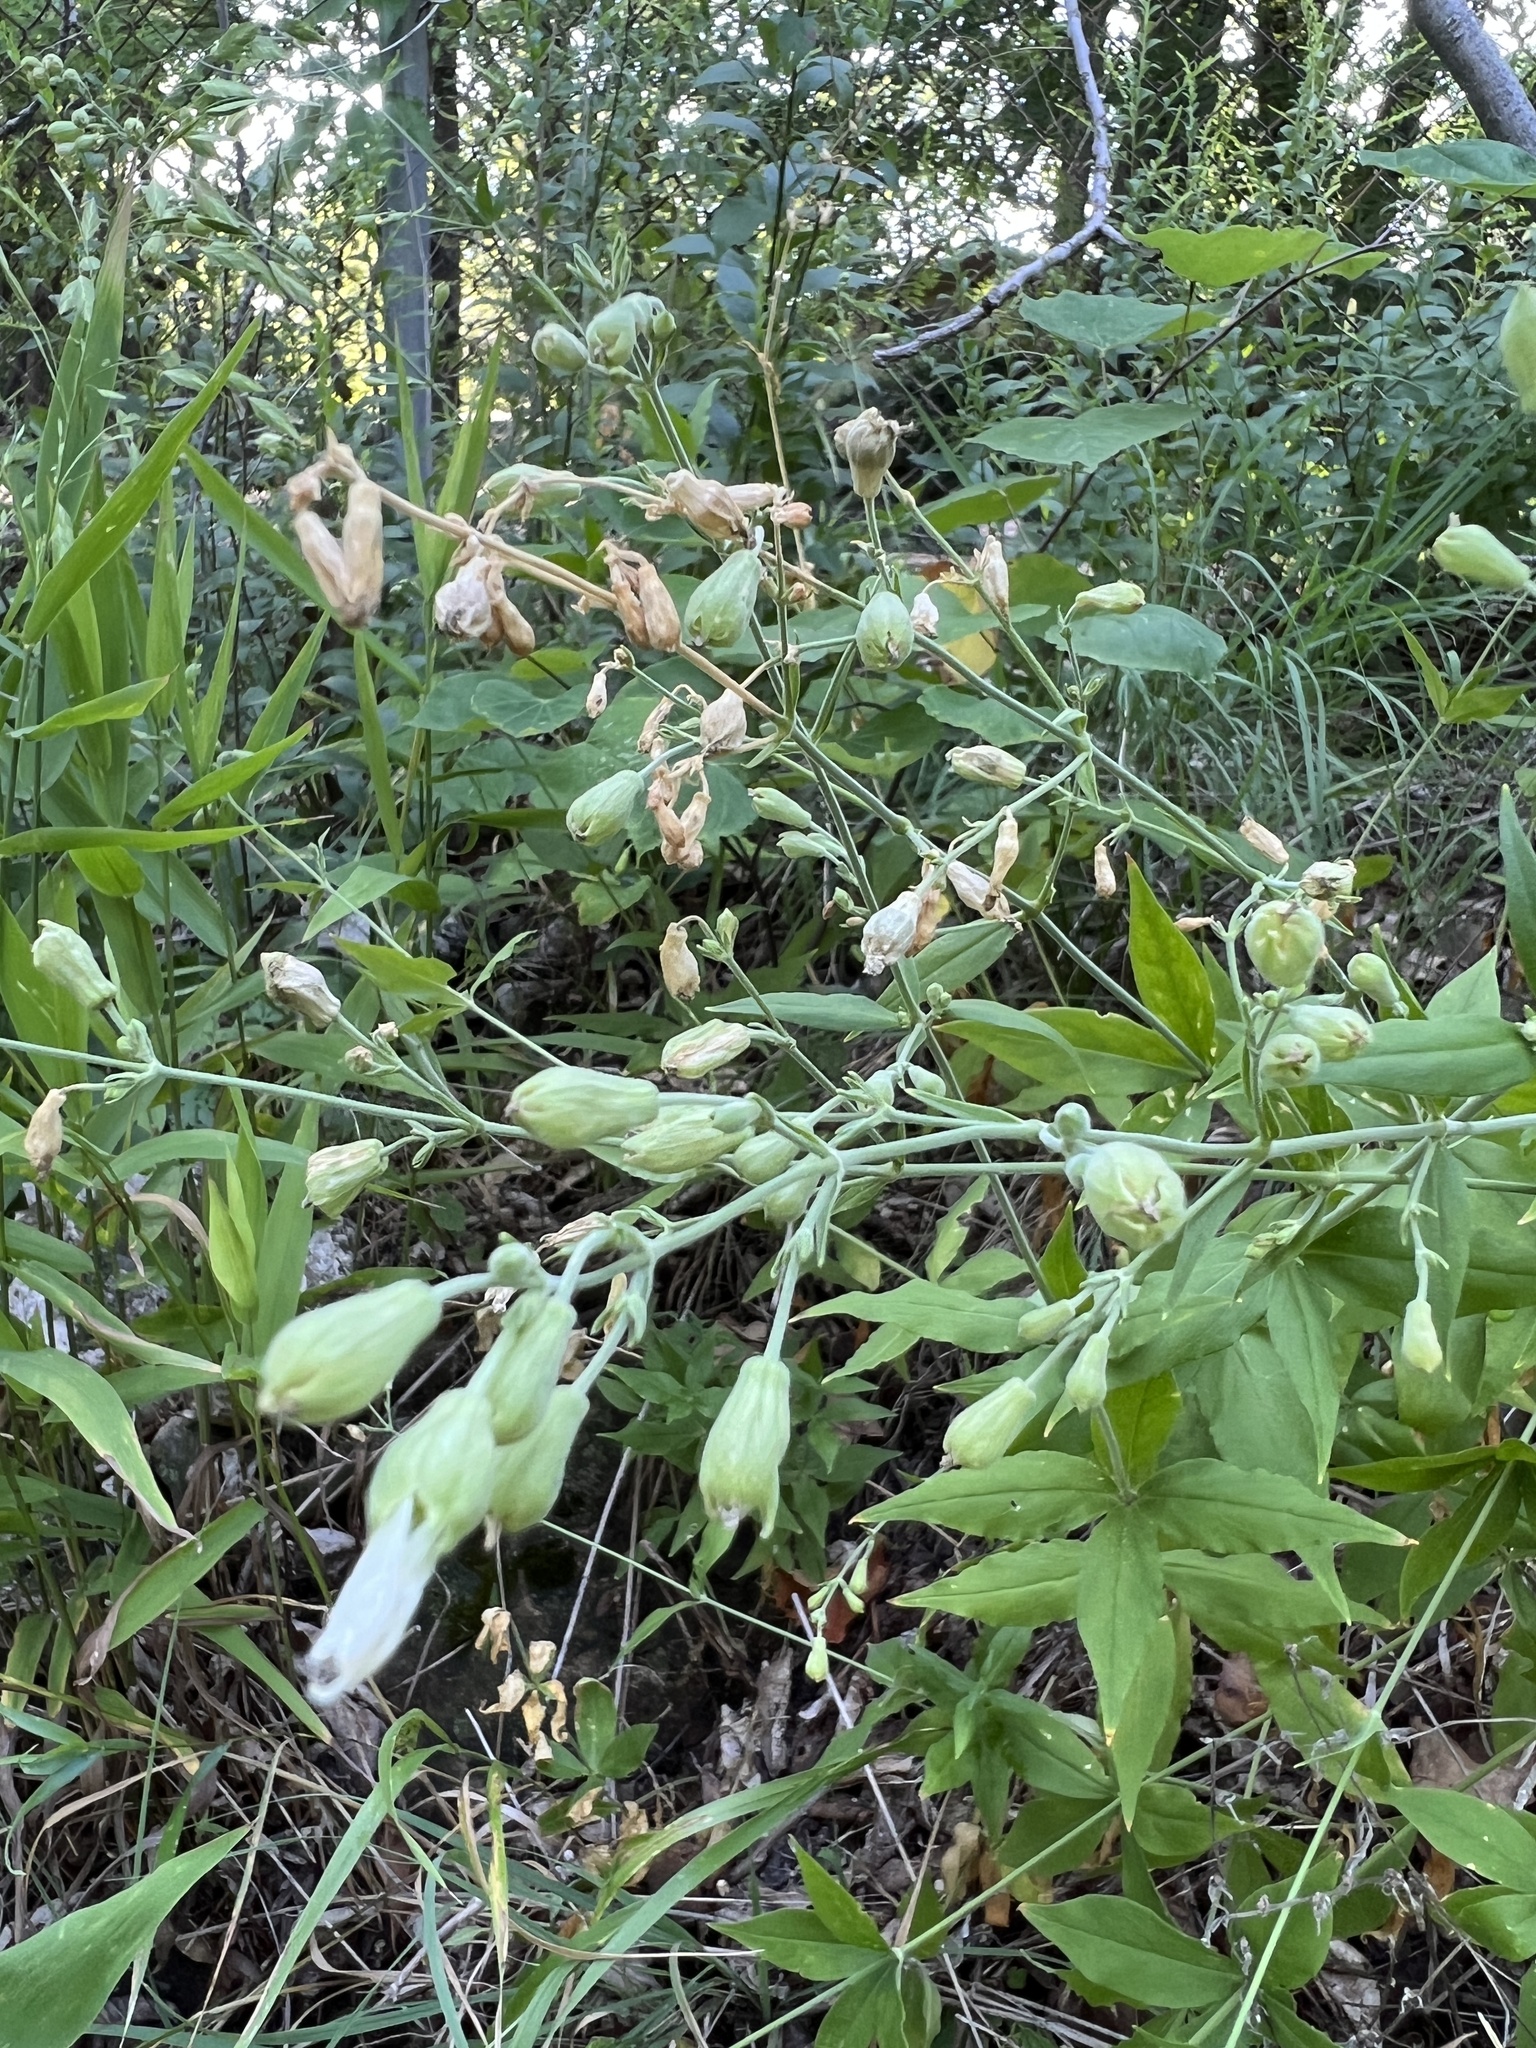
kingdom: Plantae
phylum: Tracheophyta
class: Magnoliopsida
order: Caryophyllales
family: Caryophyllaceae
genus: Silene
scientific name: Silene stellata
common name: Starry campion
